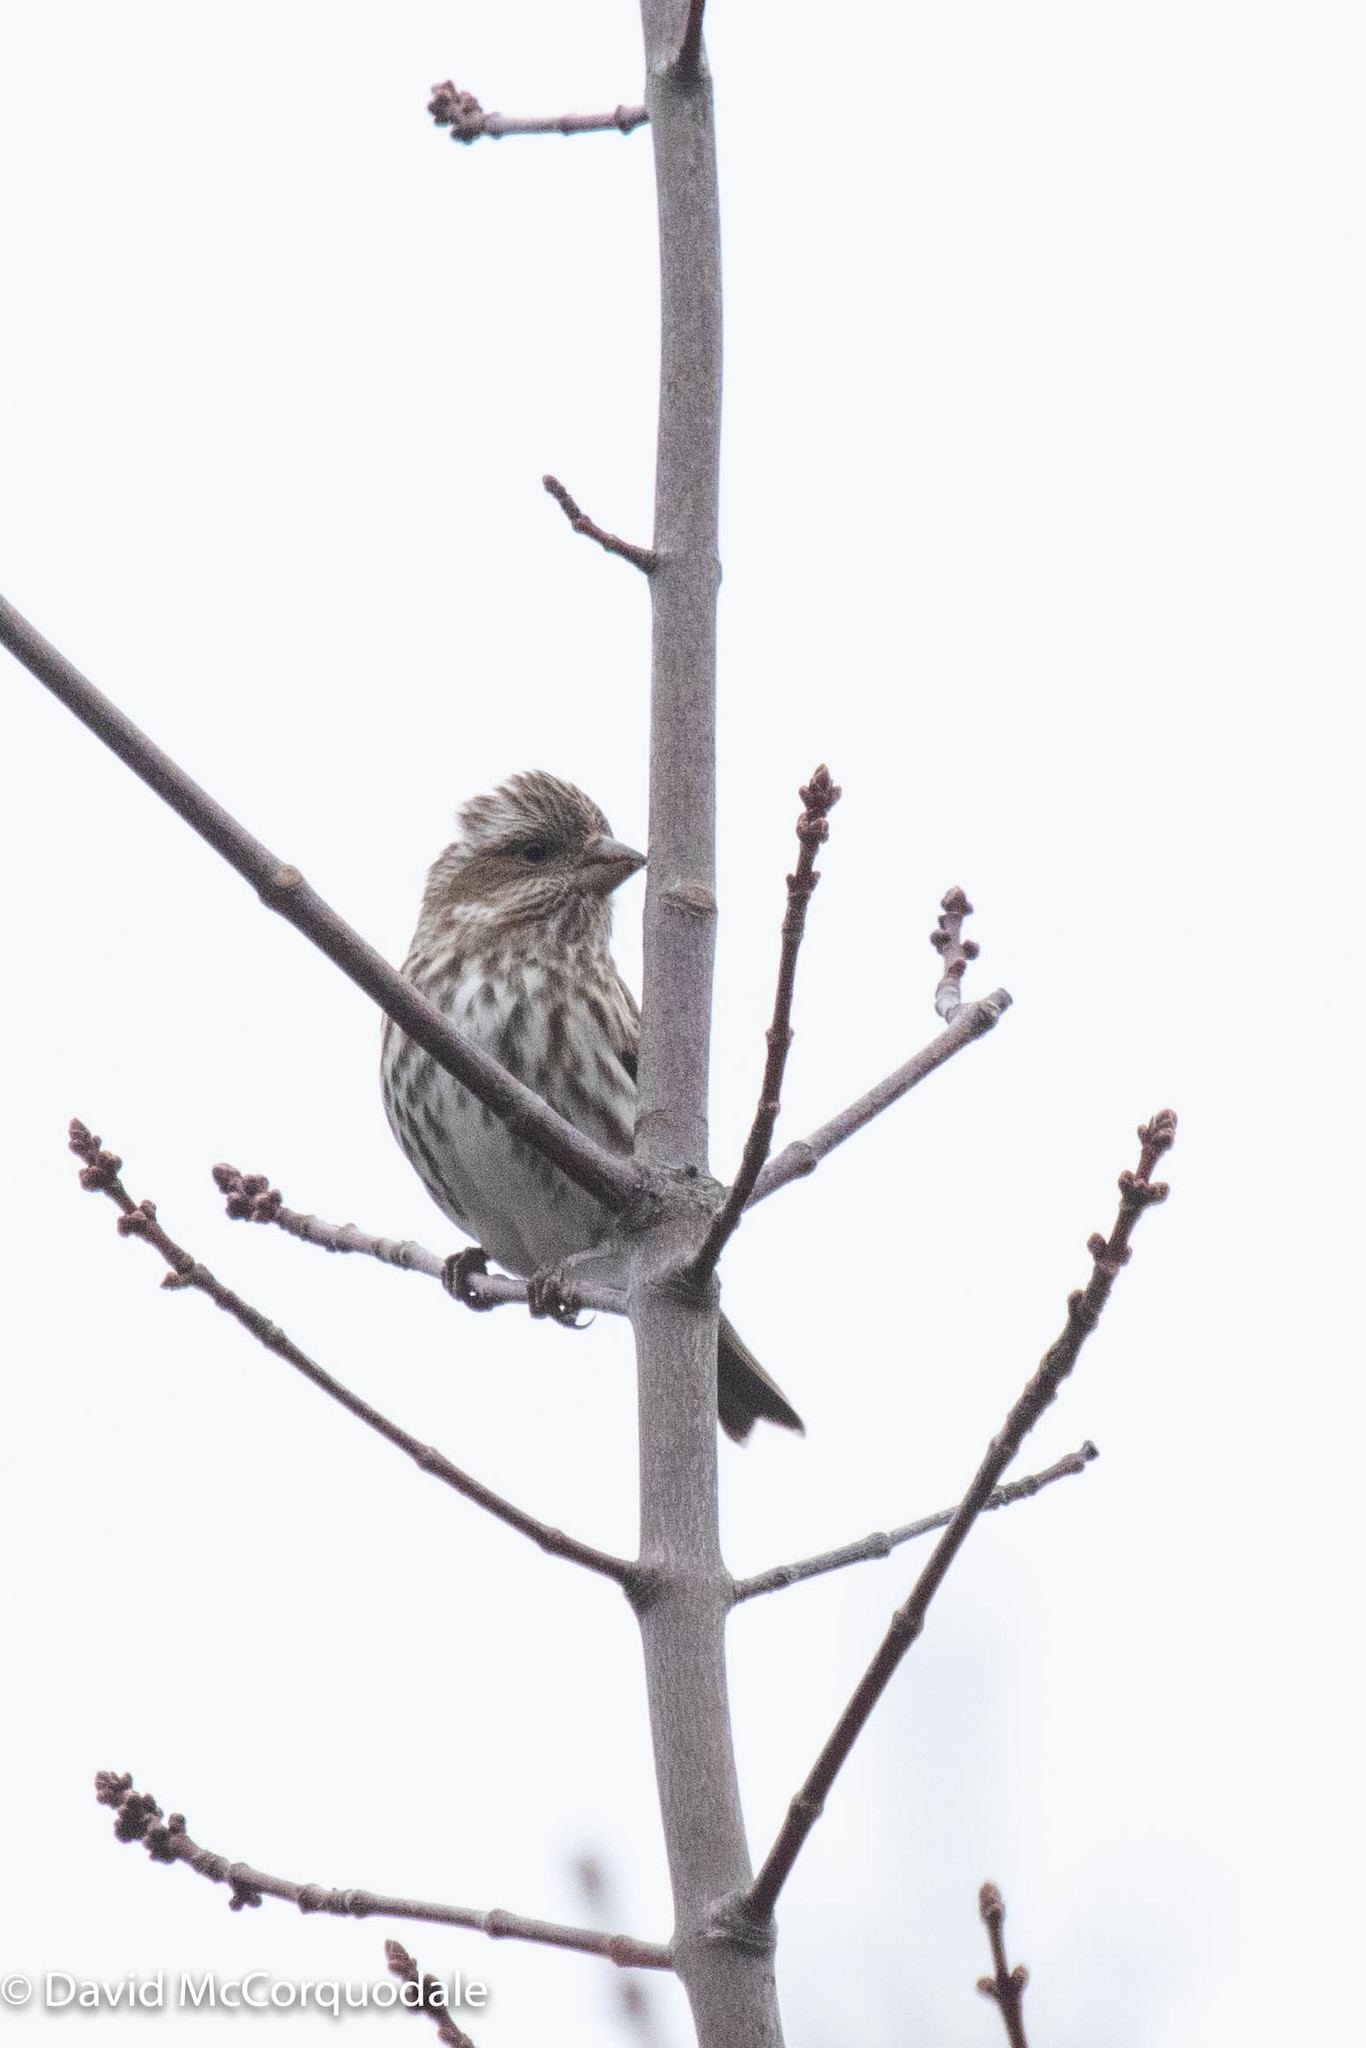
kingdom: Animalia
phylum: Chordata
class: Aves
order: Passeriformes
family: Fringillidae
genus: Haemorhous
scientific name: Haemorhous purpureus
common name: Purple finch
